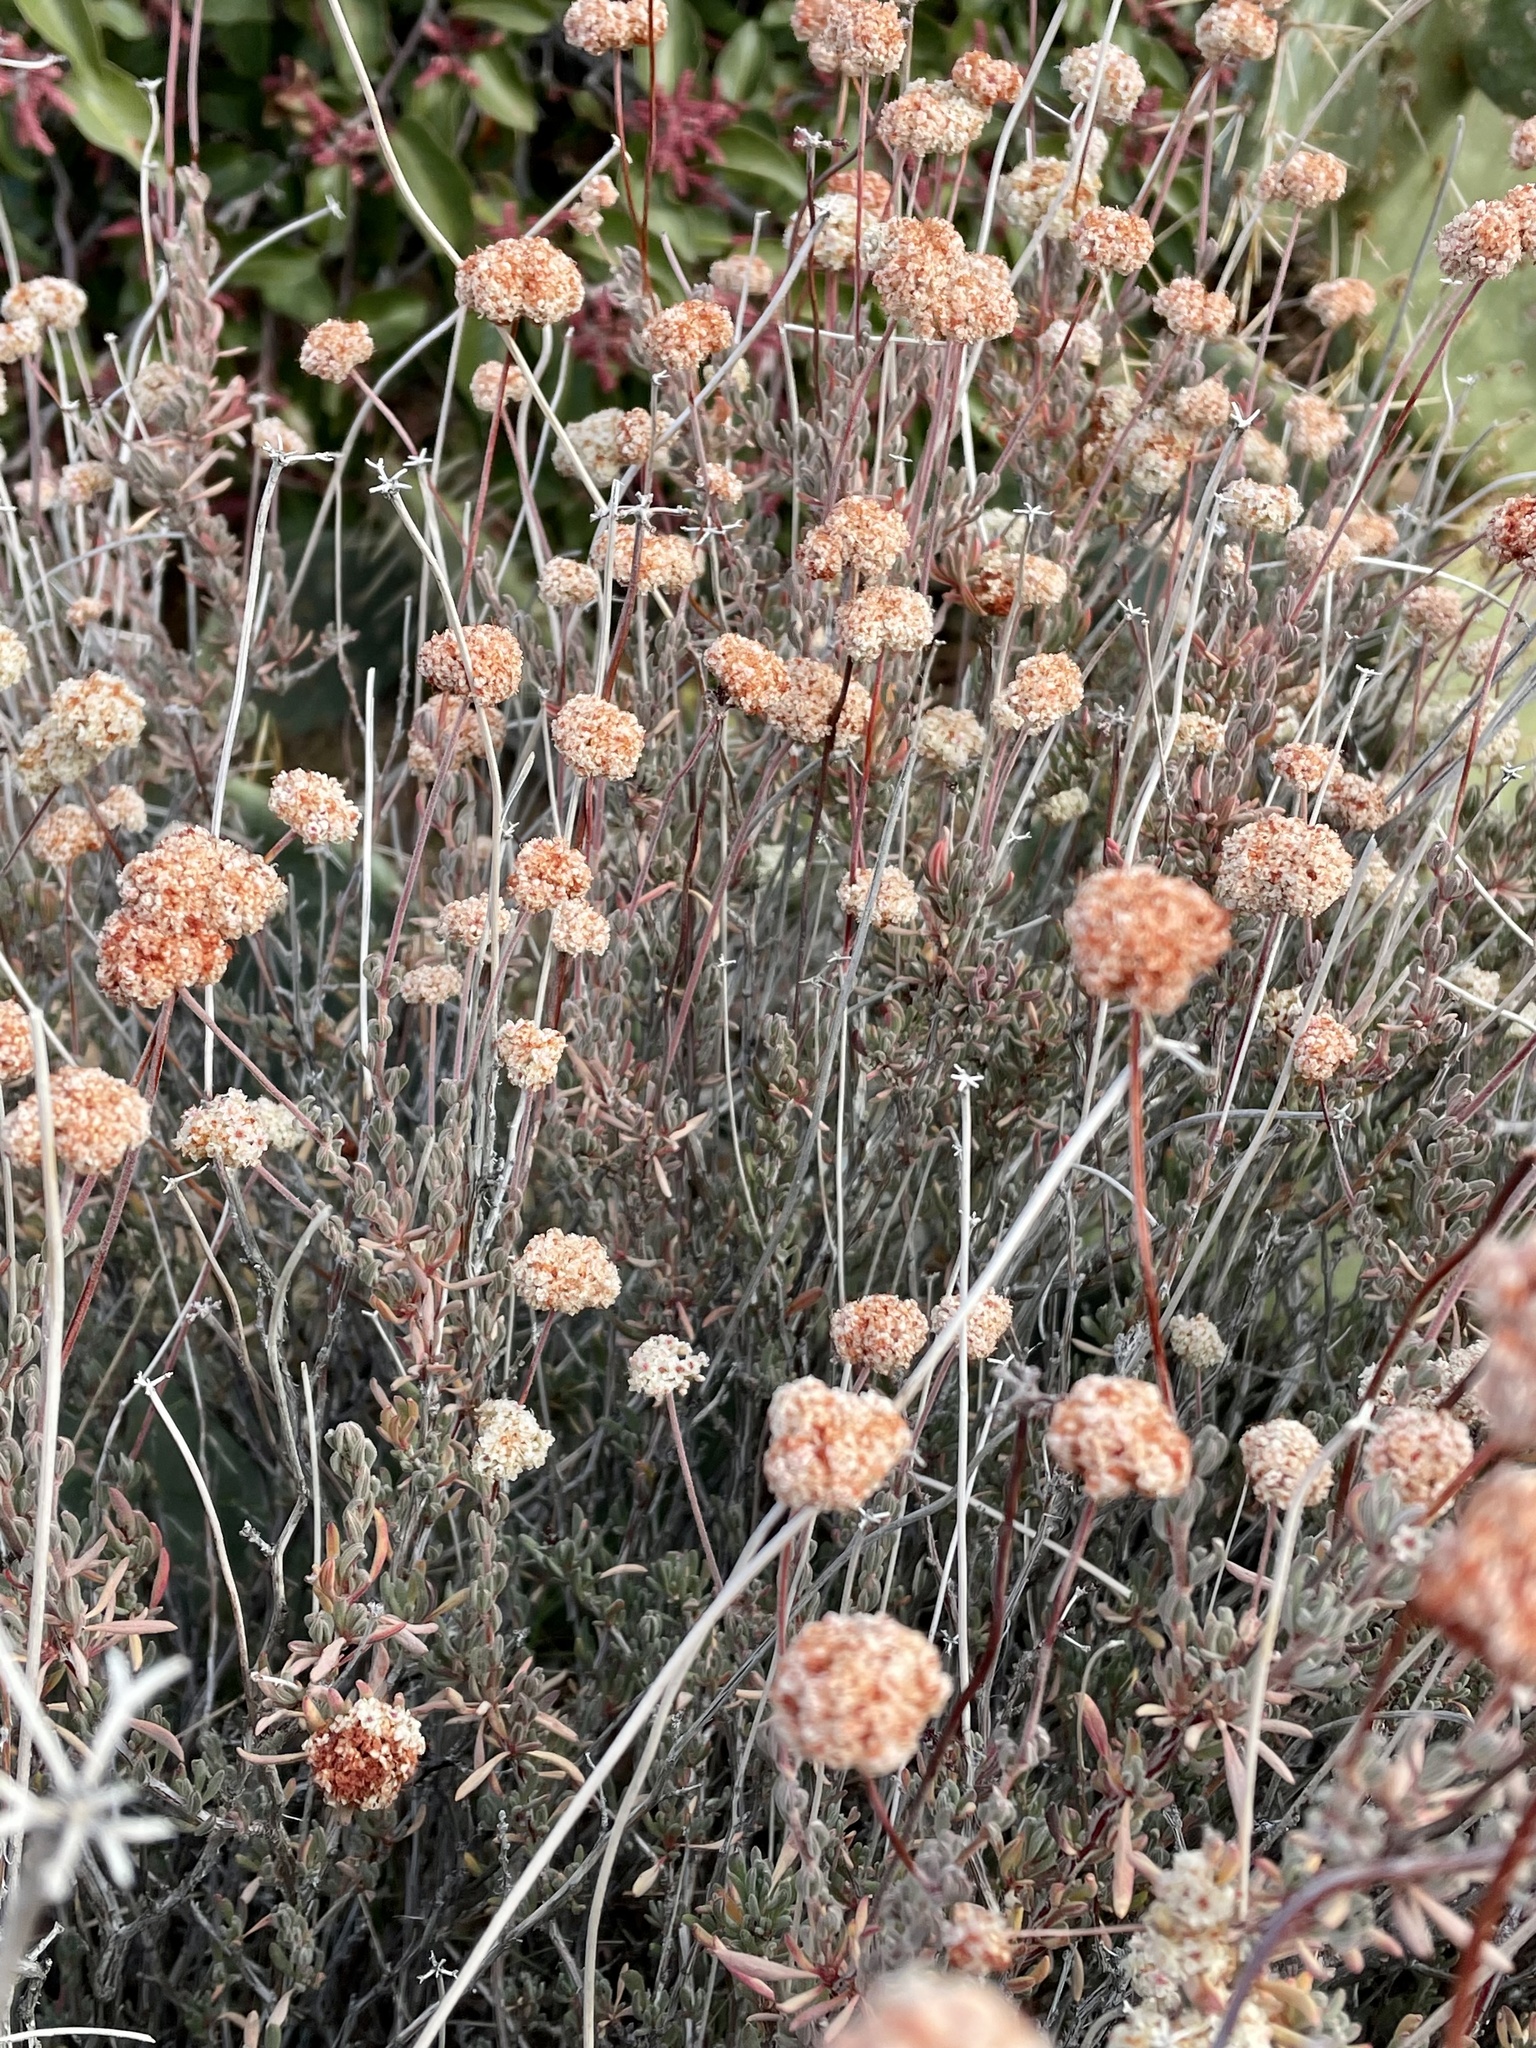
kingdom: Plantae
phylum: Tracheophyta
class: Magnoliopsida
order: Caryophyllales
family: Polygonaceae
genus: Eriogonum
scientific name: Eriogonum fasciculatum
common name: California wild buckwheat
